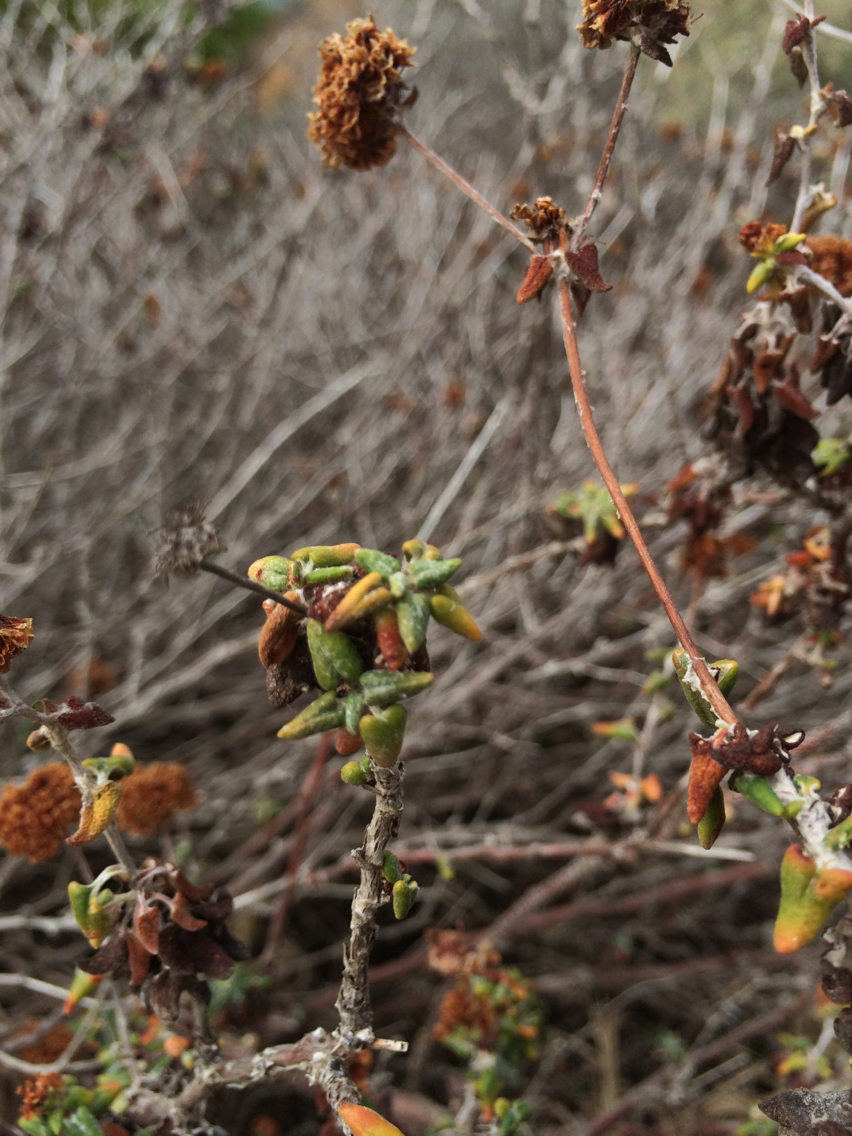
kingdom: Plantae
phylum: Tracheophyta
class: Magnoliopsida
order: Caryophyllales
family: Polygonaceae
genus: Eriogonum
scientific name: Eriogonum parvifolium
